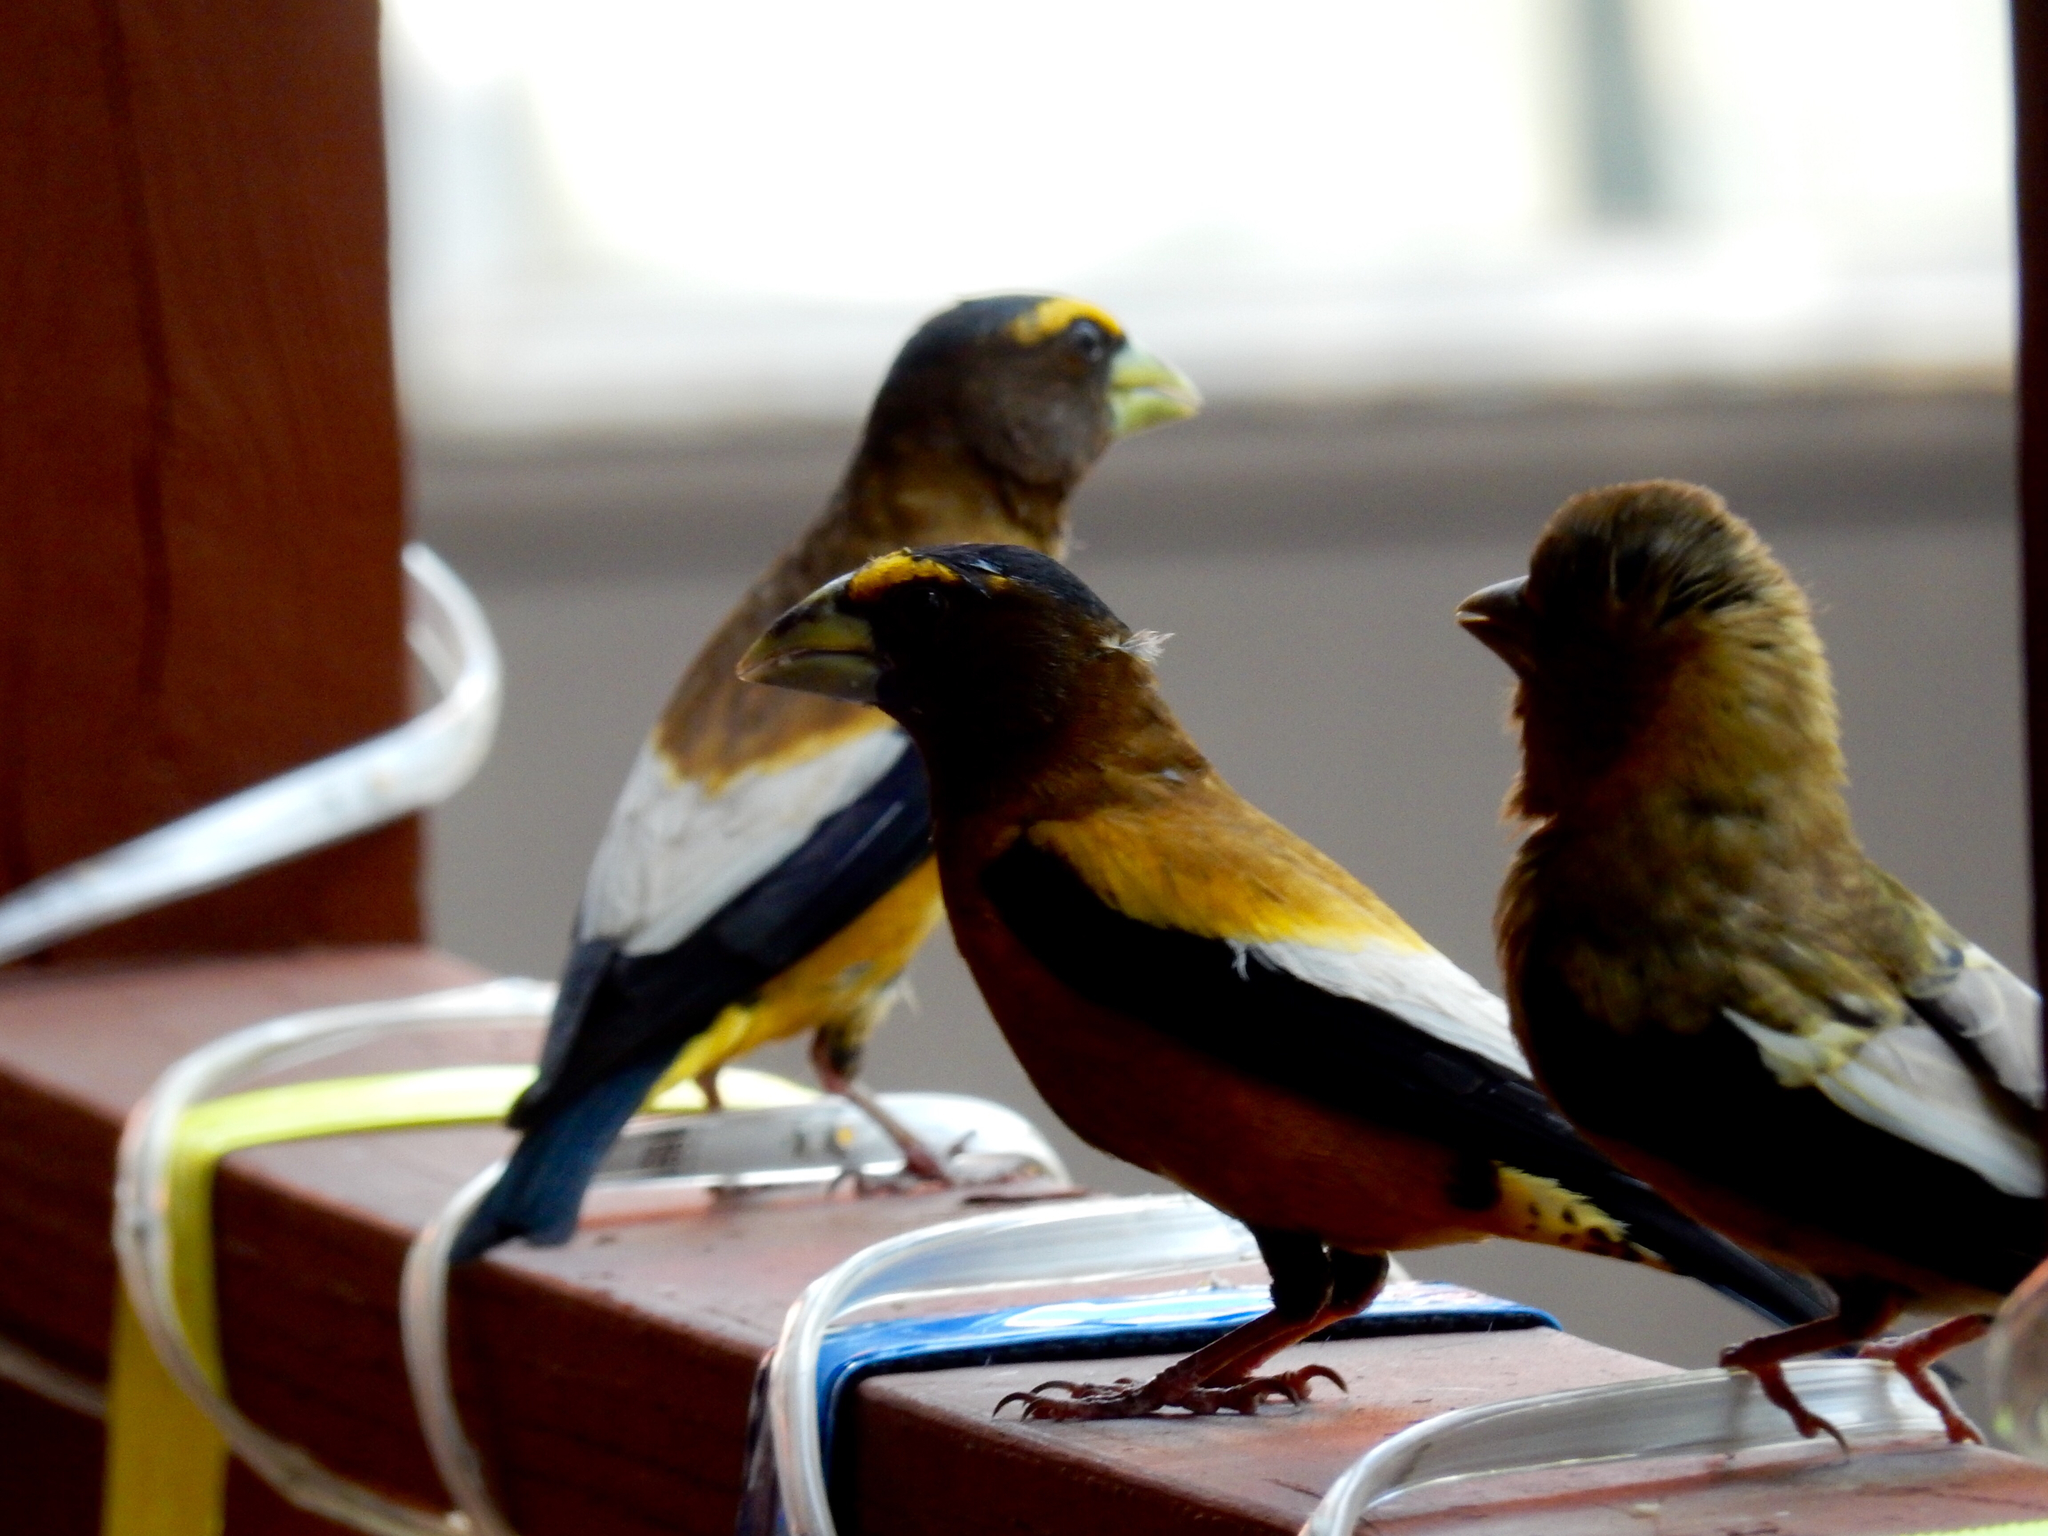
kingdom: Animalia
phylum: Chordata
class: Aves
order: Passeriformes
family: Fringillidae
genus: Hesperiphona
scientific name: Hesperiphona vespertina
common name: Evening grosbeak
